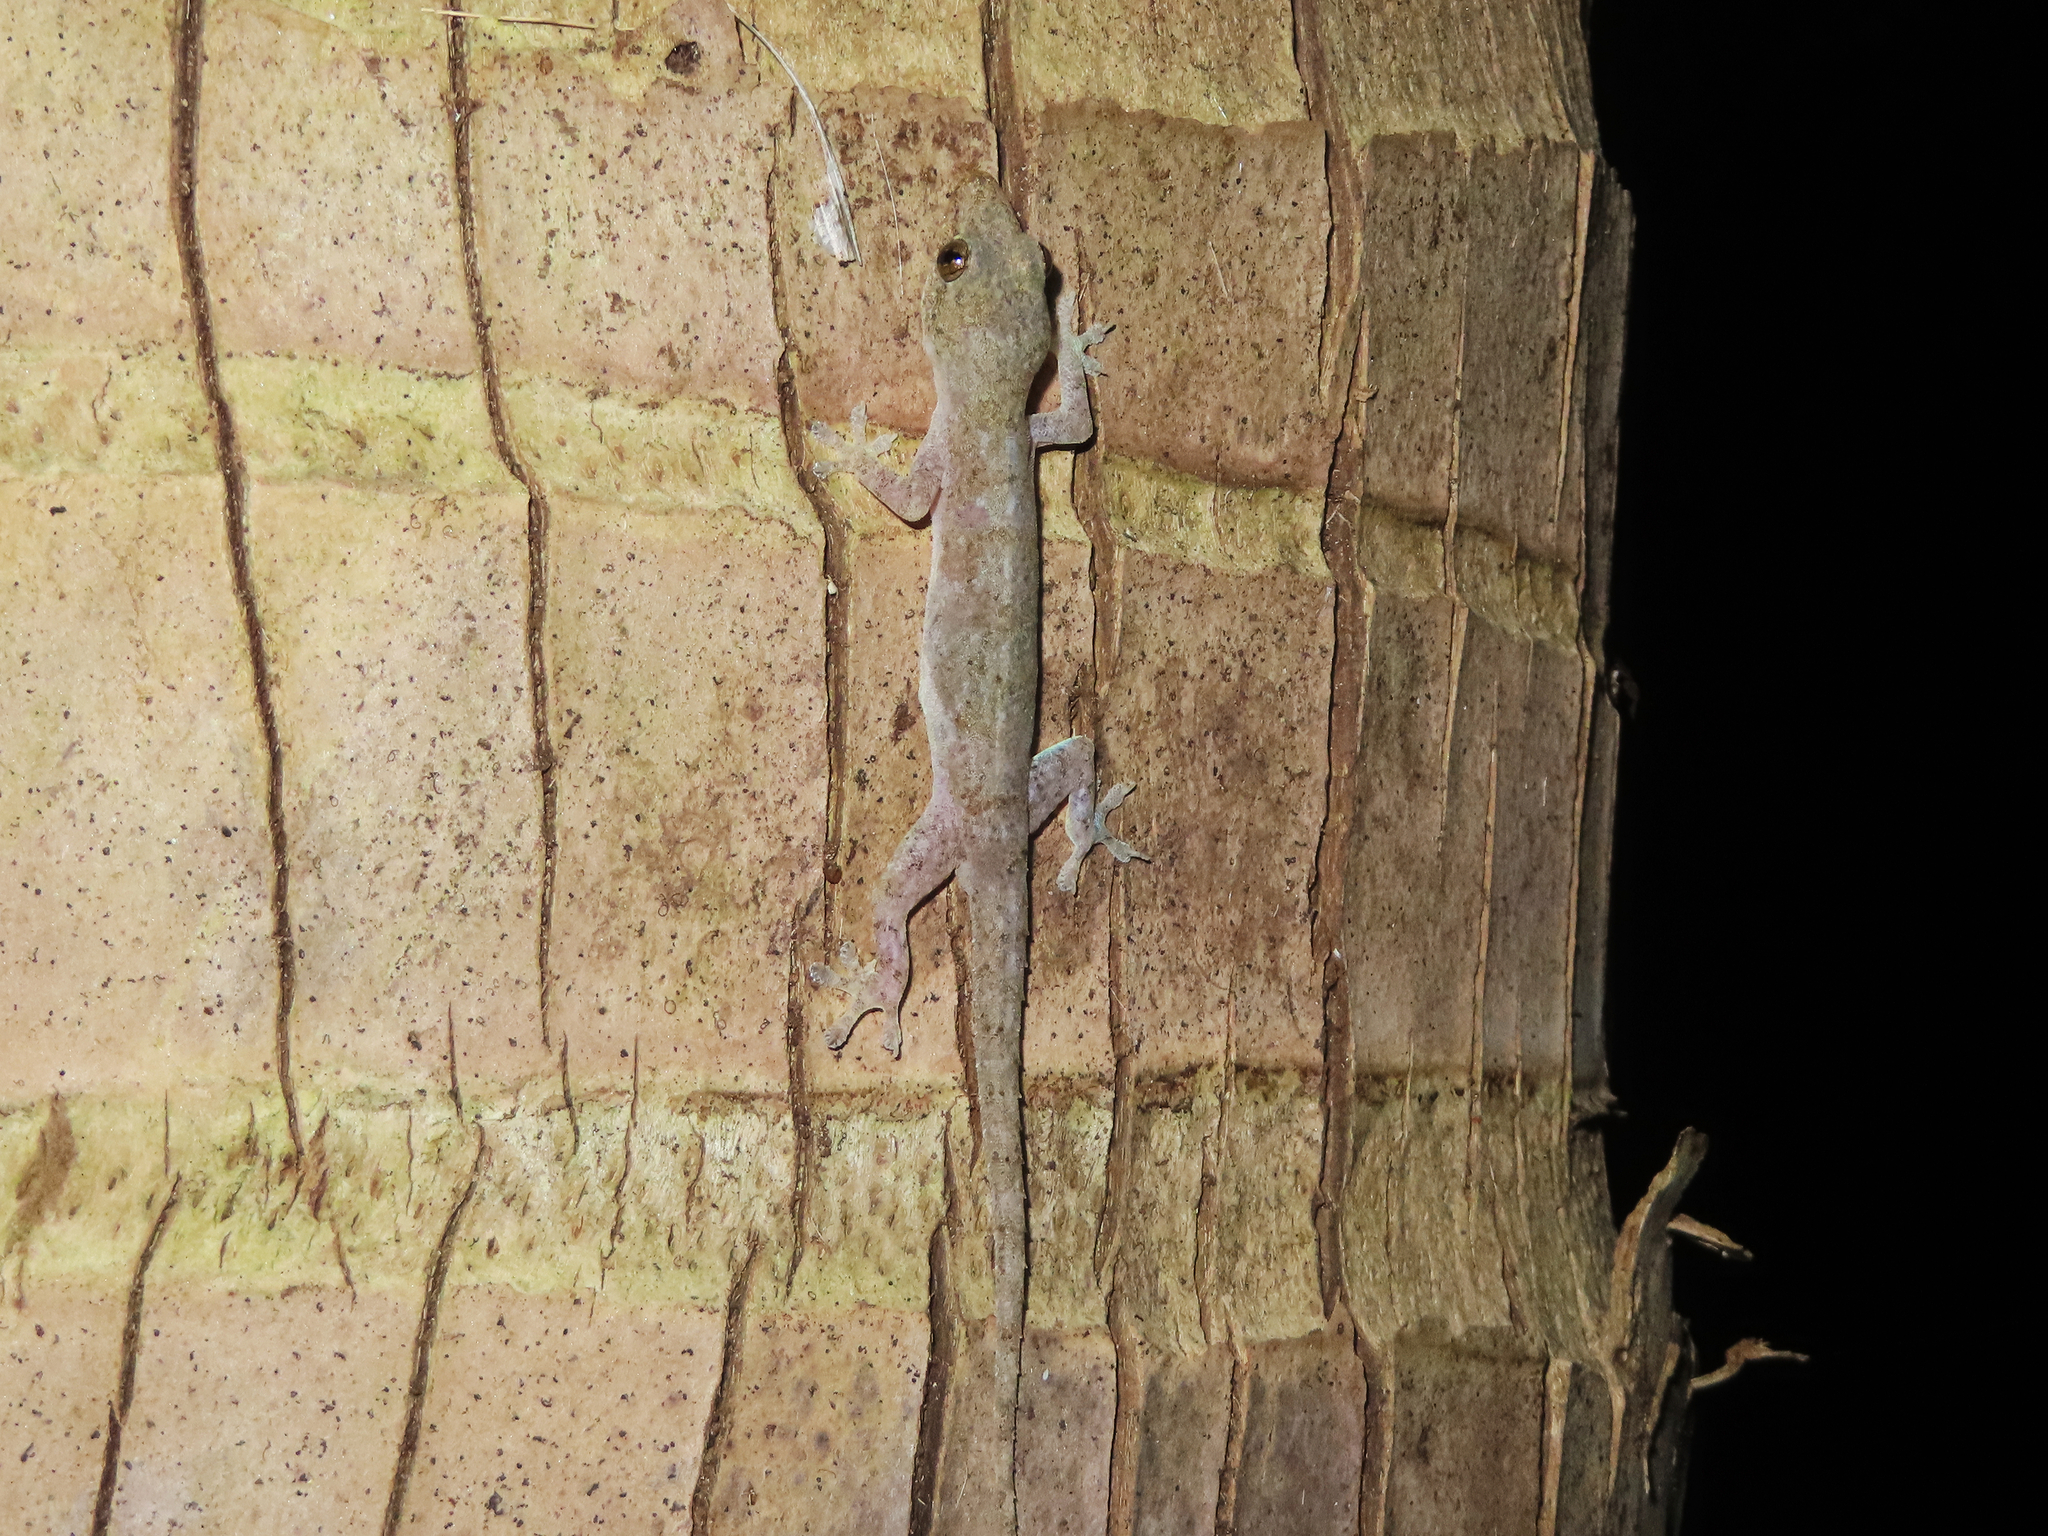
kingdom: Animalia
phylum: Chordata
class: Squamata
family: Gekkonidae
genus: Hemidactylus
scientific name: Hemidactylus frenatus
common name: Common house gecko
